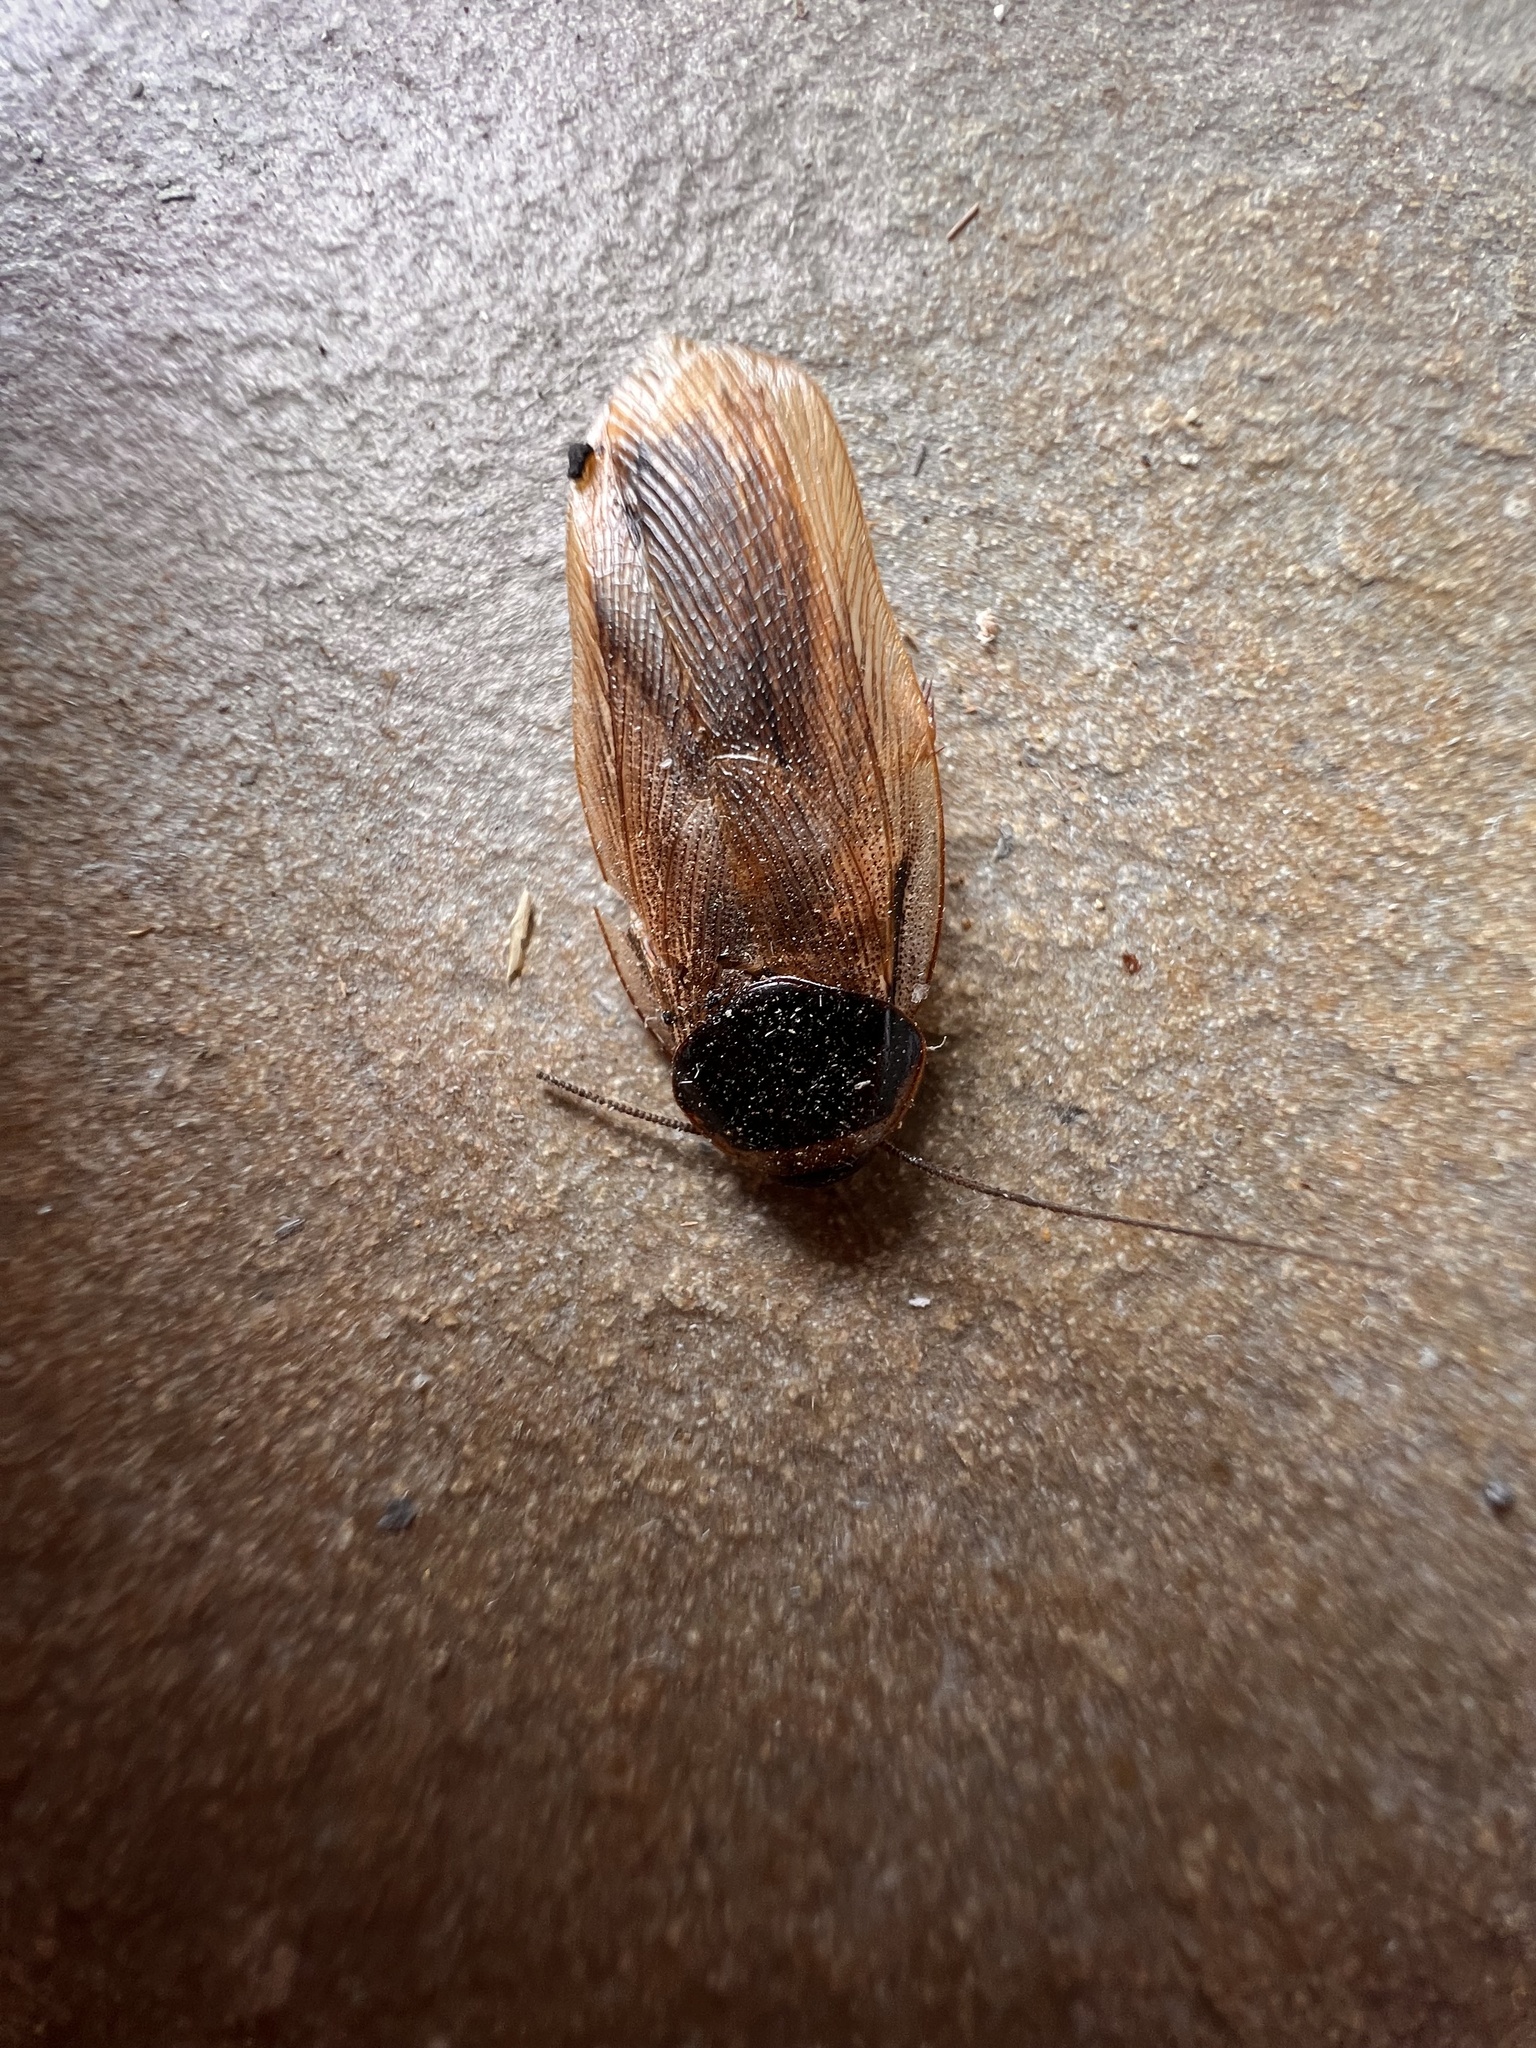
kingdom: Animalia
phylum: Arthropoda
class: Insecta
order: Blattodea
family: Blaberidae
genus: Pycnoscelus
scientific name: Pycnoscelus indicus
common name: Burrowing cockroach
